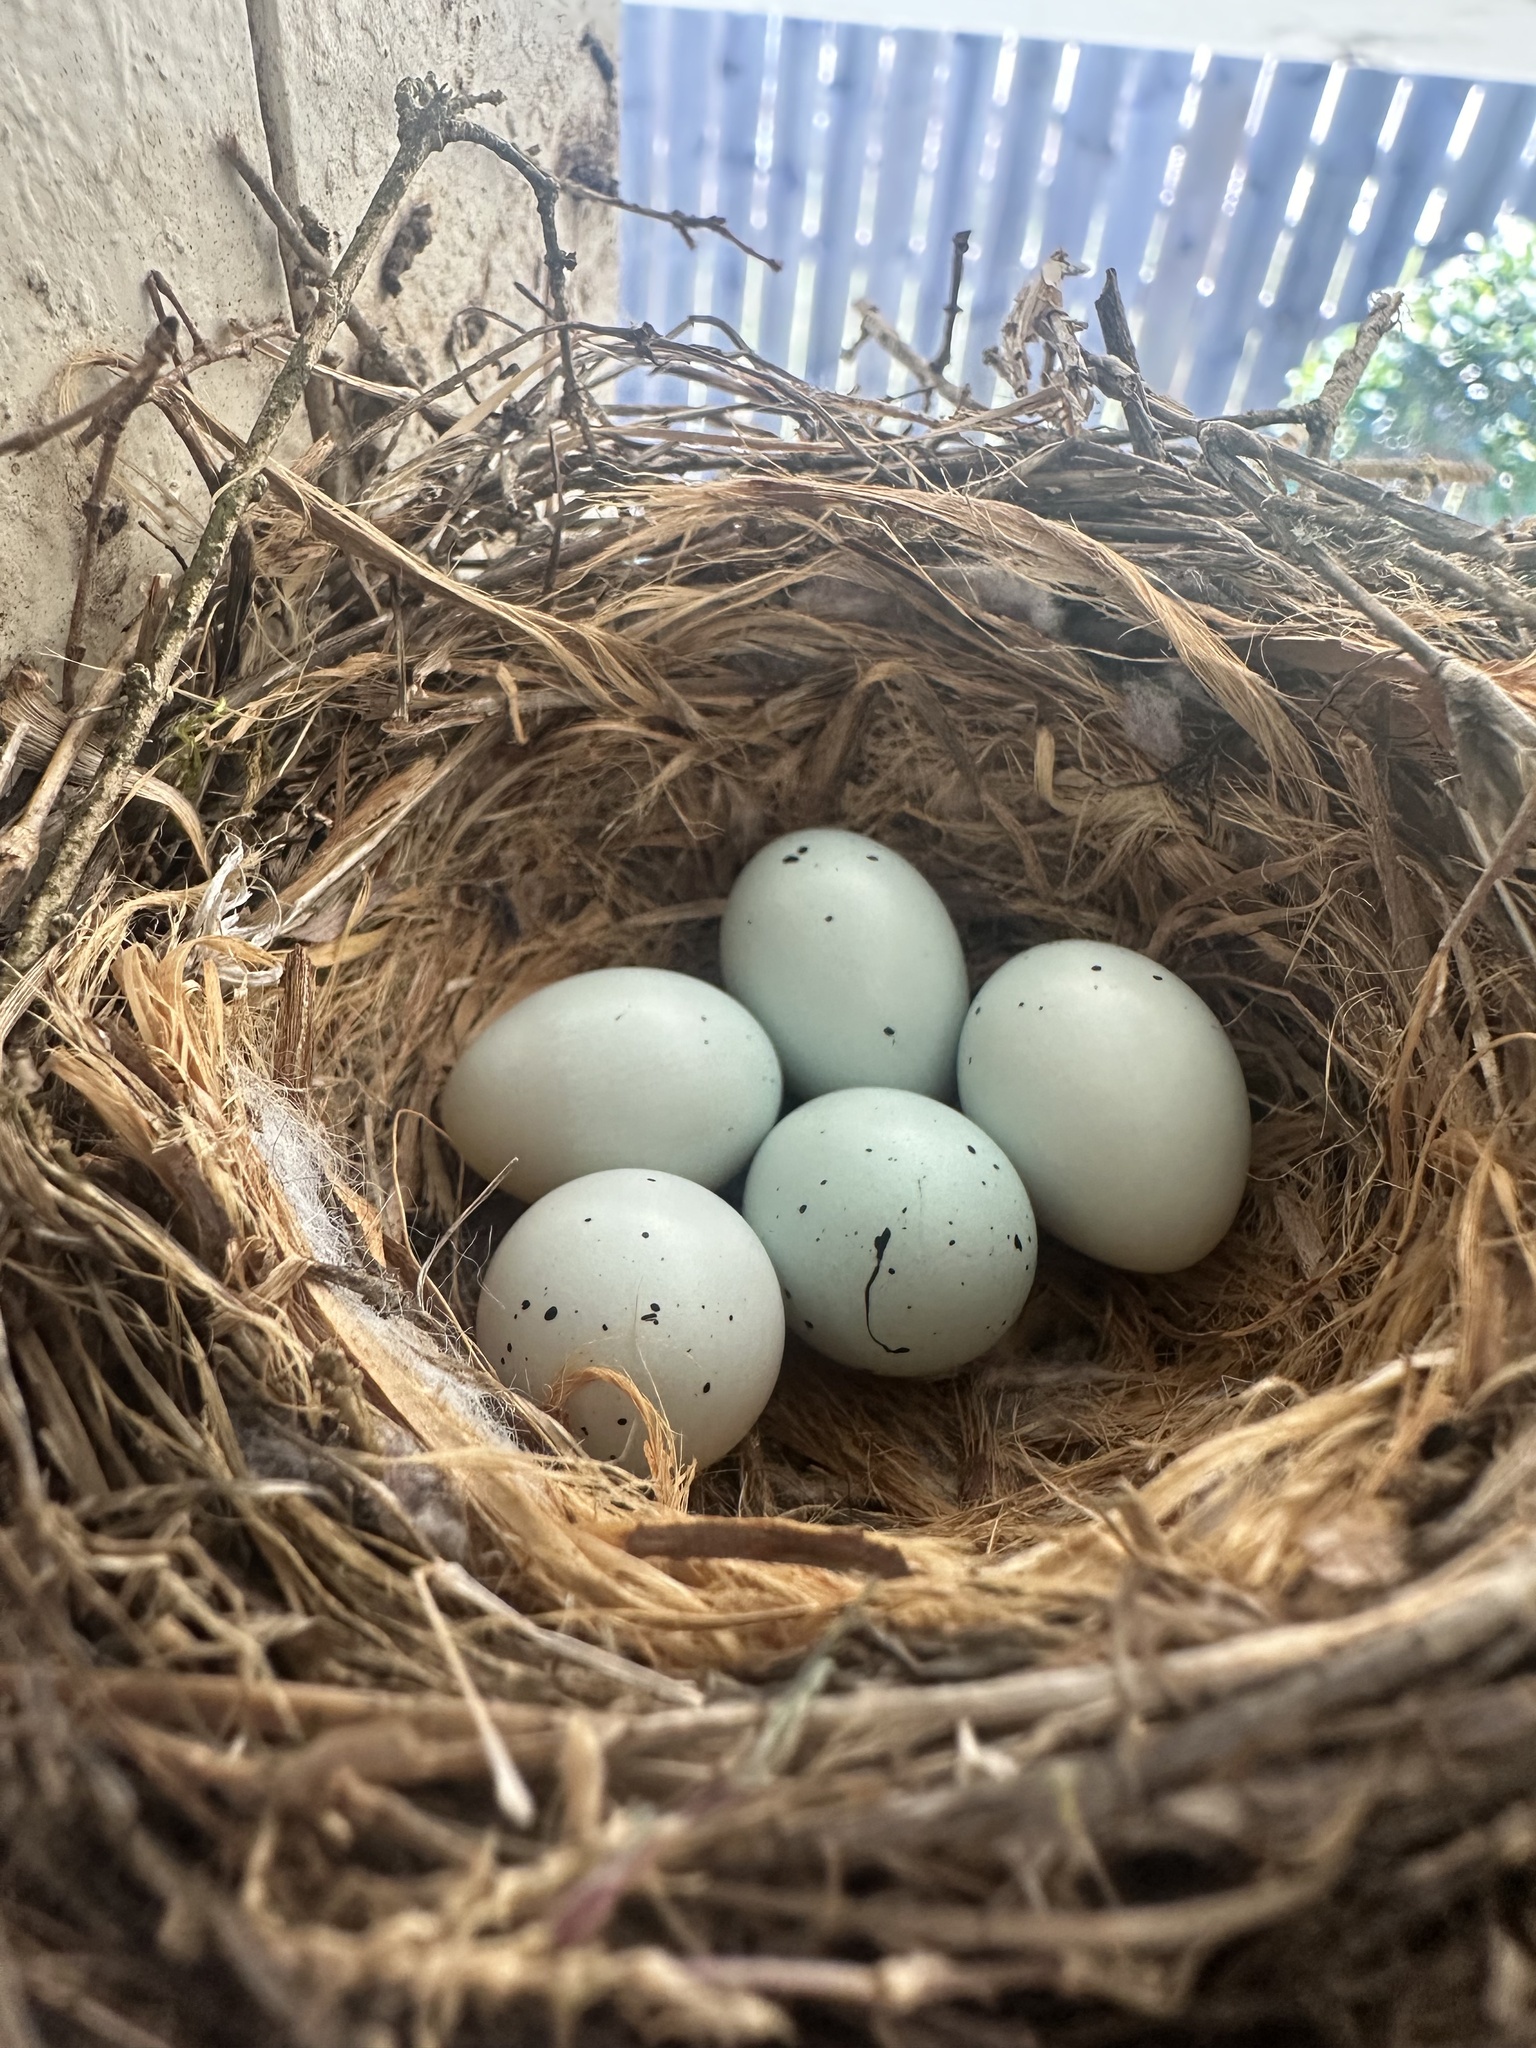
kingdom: Animalia
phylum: Chordata
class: Aves
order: Passeriformes
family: Fringillidae
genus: Haemorhous
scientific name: Haemorhous mexicanus
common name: House finch
